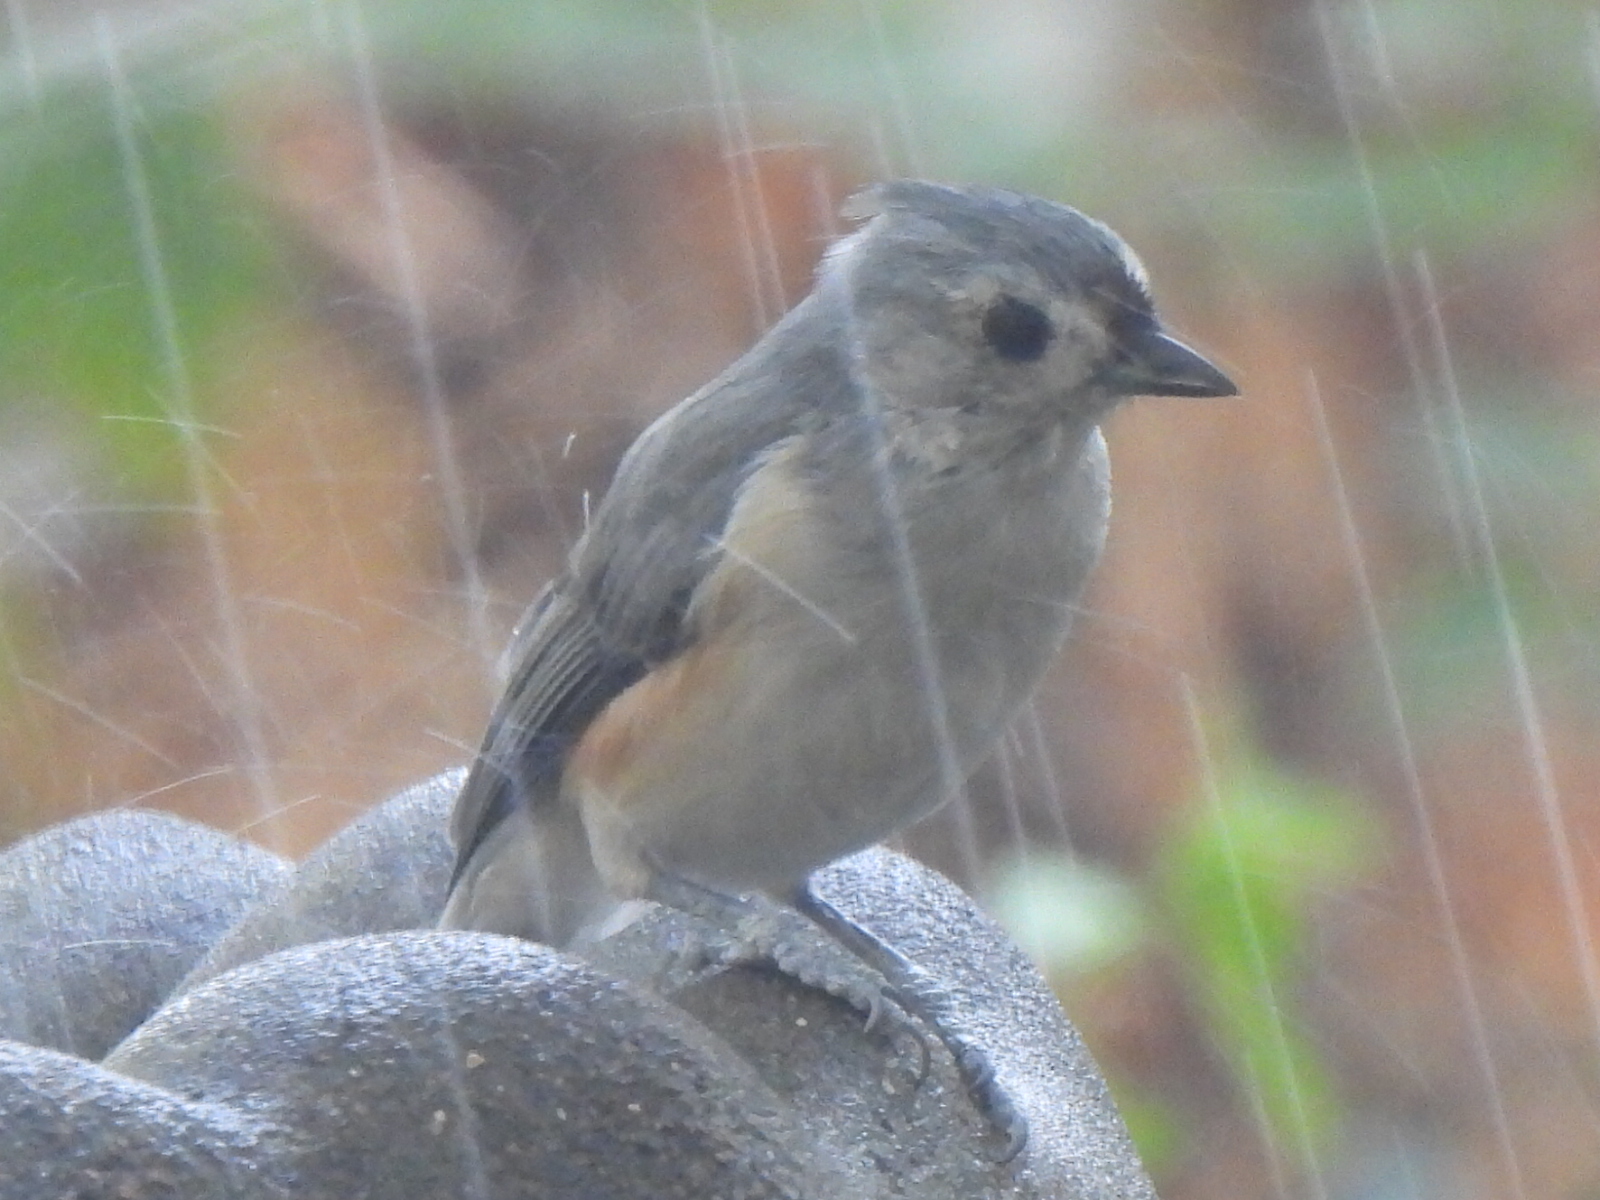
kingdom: Animalia
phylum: Chordata
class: Aves
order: Passeriformes
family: Paridae
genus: Baeolophus
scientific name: Baeolophus bicolor
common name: Tufted titmouse
